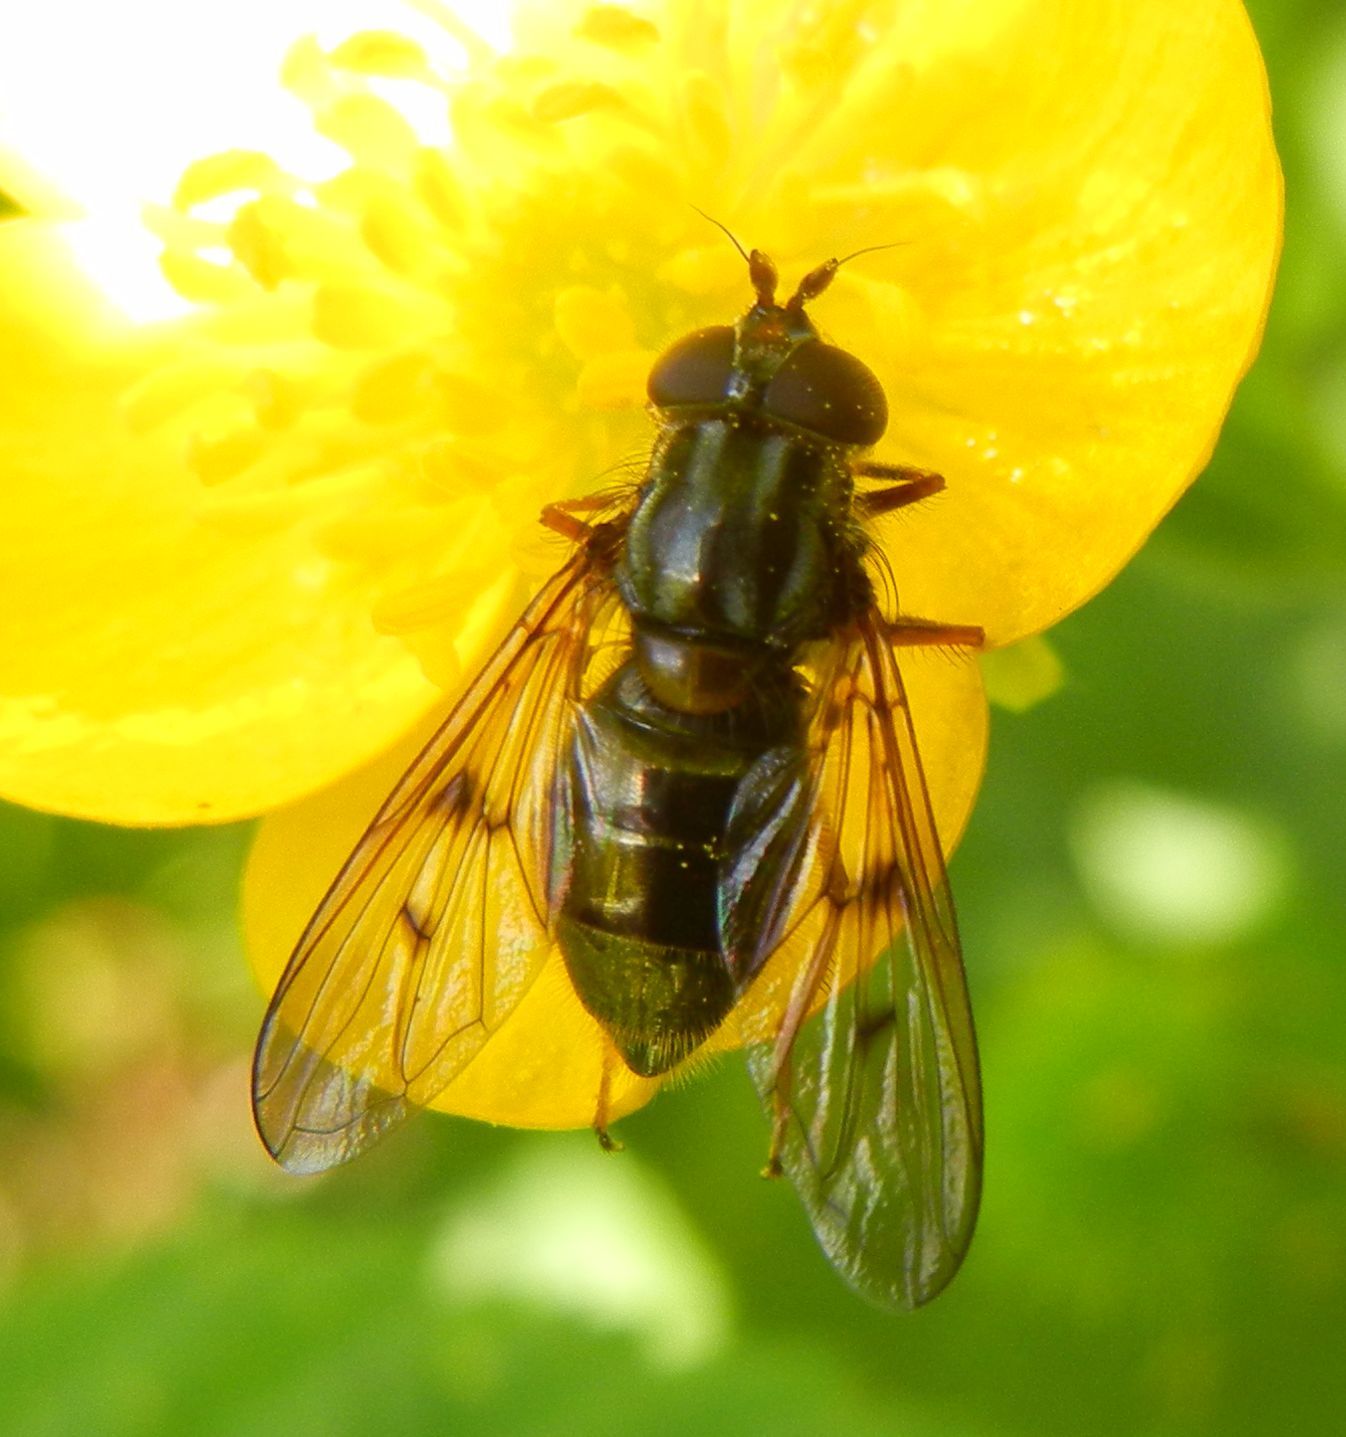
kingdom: Animalia
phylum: Arthropoda
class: Insecta
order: Diptera
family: Syrphidae
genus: Ferdinandea
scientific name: Ferdinandea cuprea
